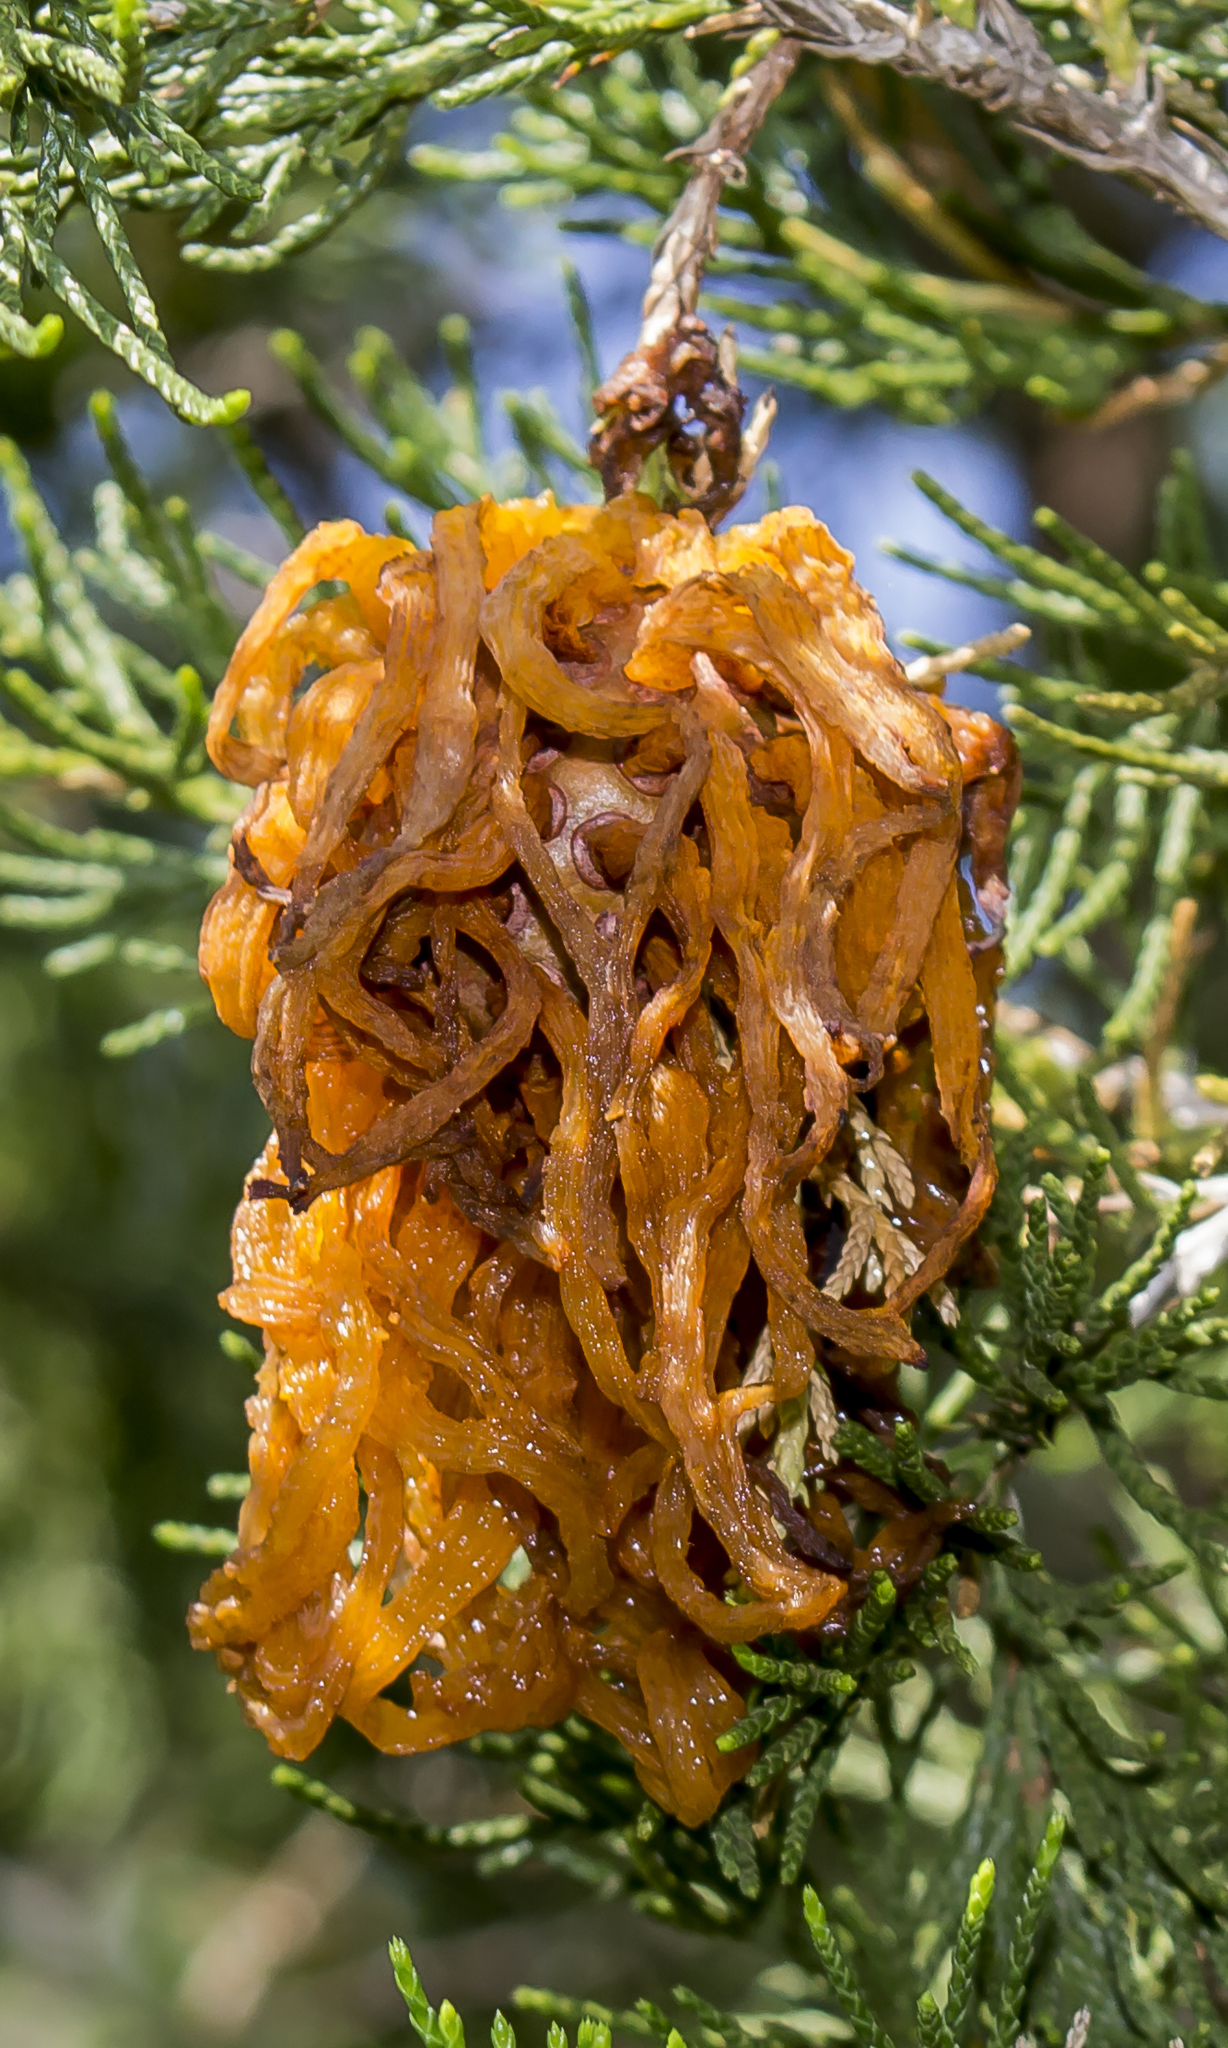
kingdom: Fungi
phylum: Basidiomycota
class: Pucciniomycetes
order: Pucciniales
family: Gymnosporangiaceae
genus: Gymnosporangium
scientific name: Gymnosporangium juniperi-virginianae
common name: Juniper-apple rust
